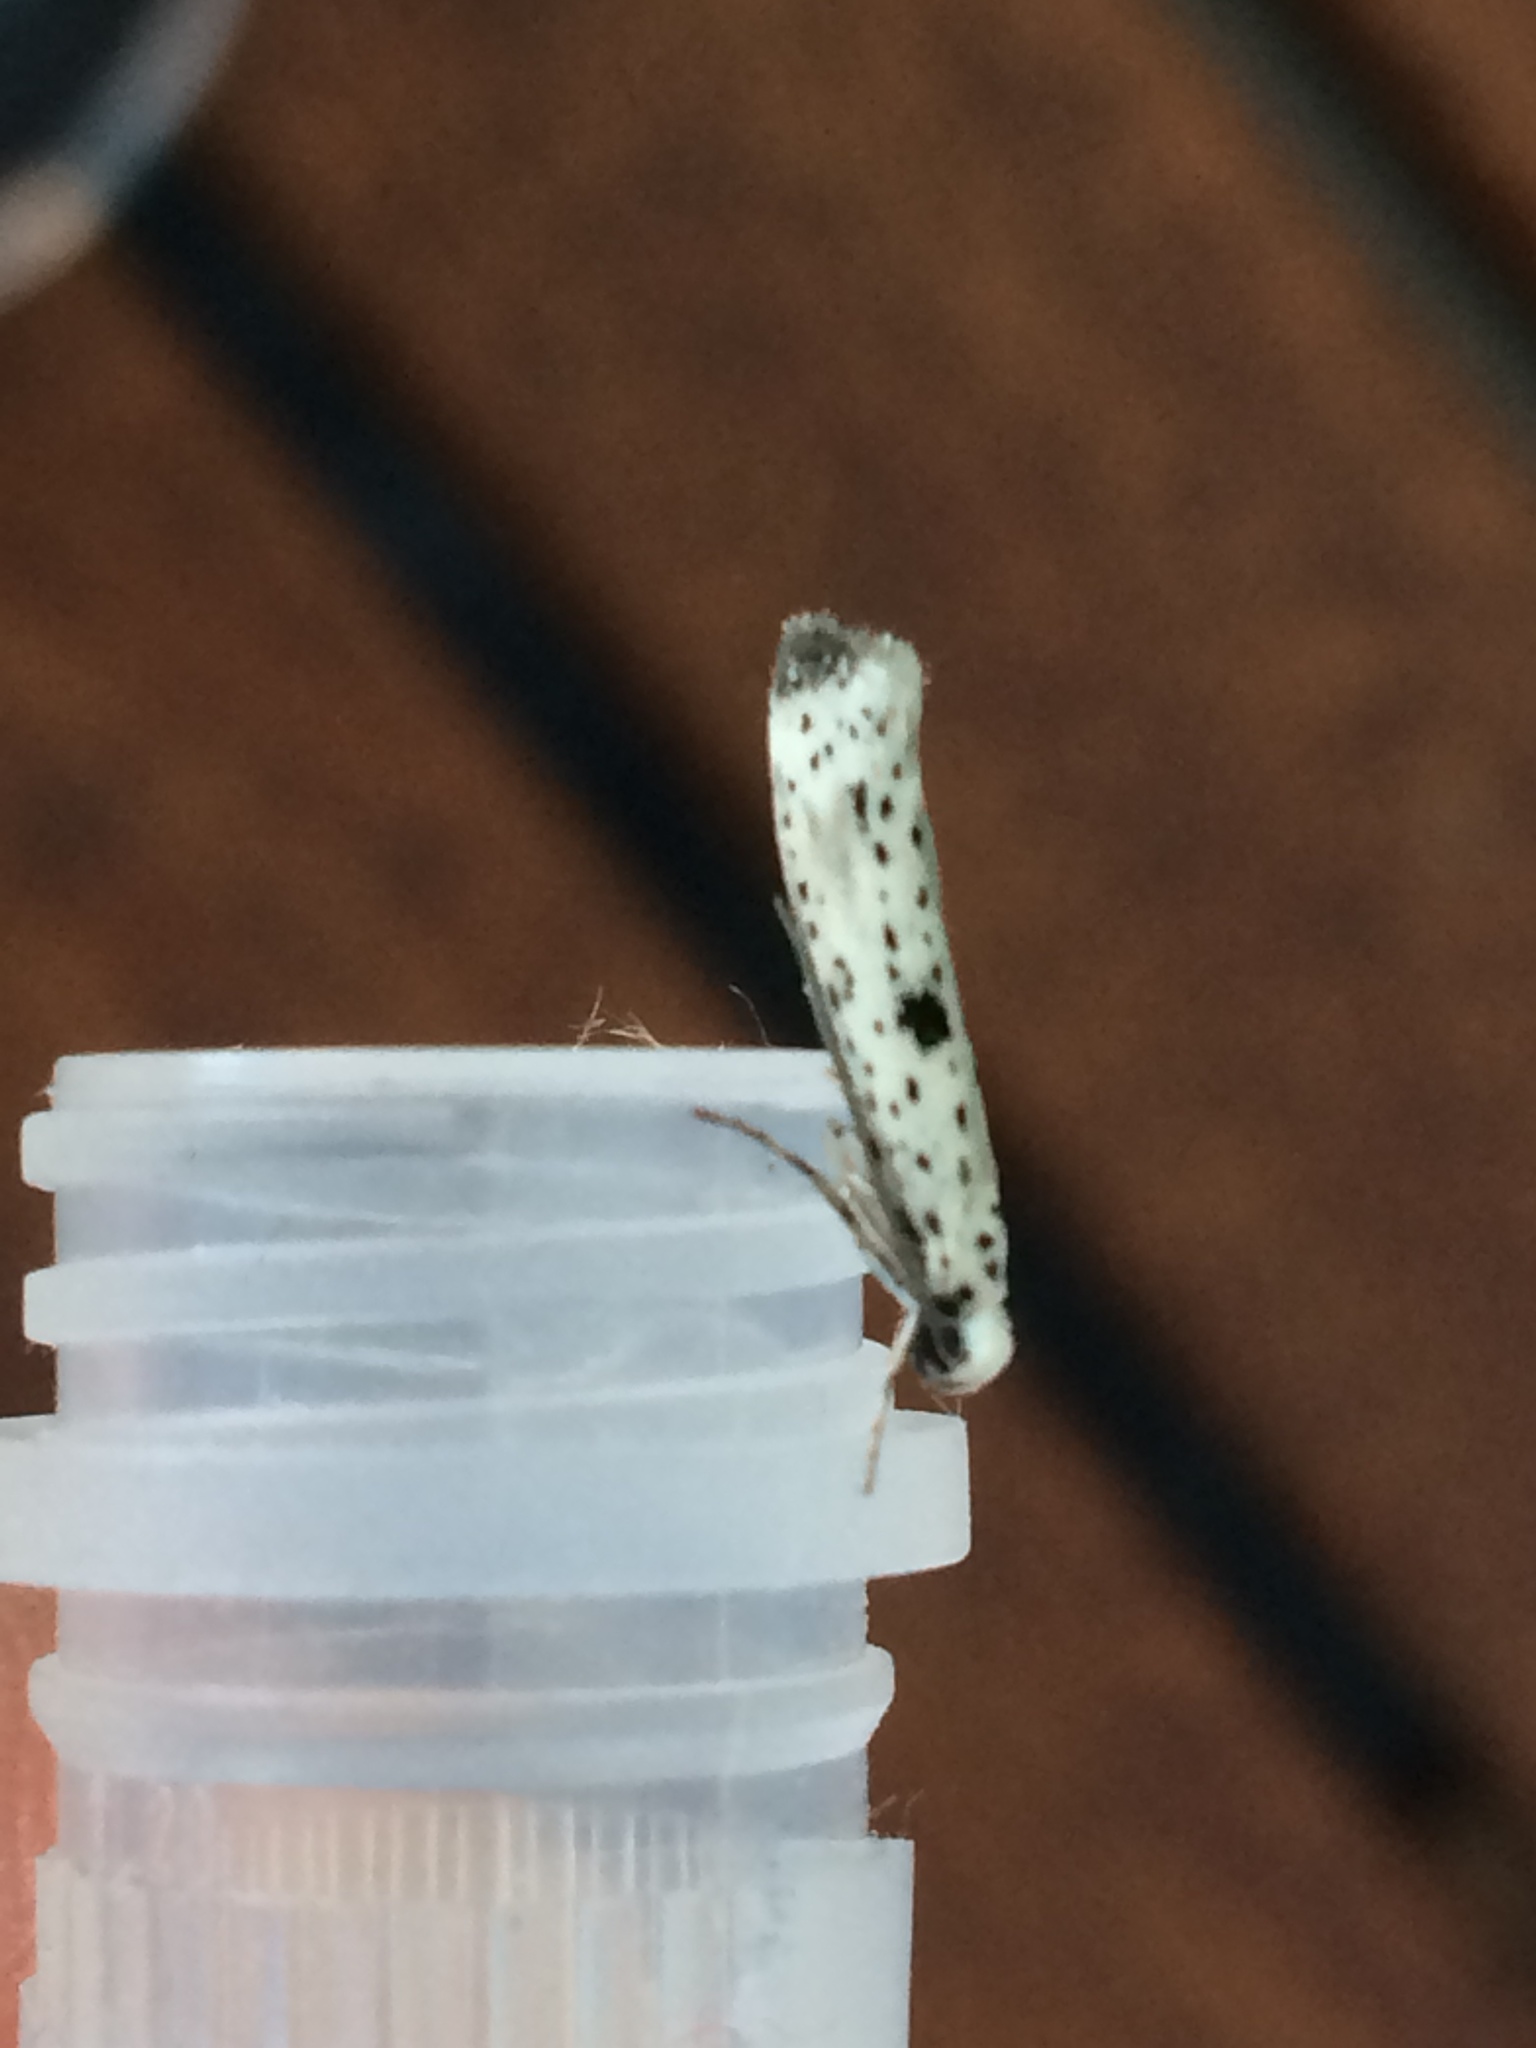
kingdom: Animalia
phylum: Arthropoda
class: Insecta
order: Lepidoptera
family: Yponomeutidae
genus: Yponomeuta
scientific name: Yponomeuta plumbella
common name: Black-tipped ermine
